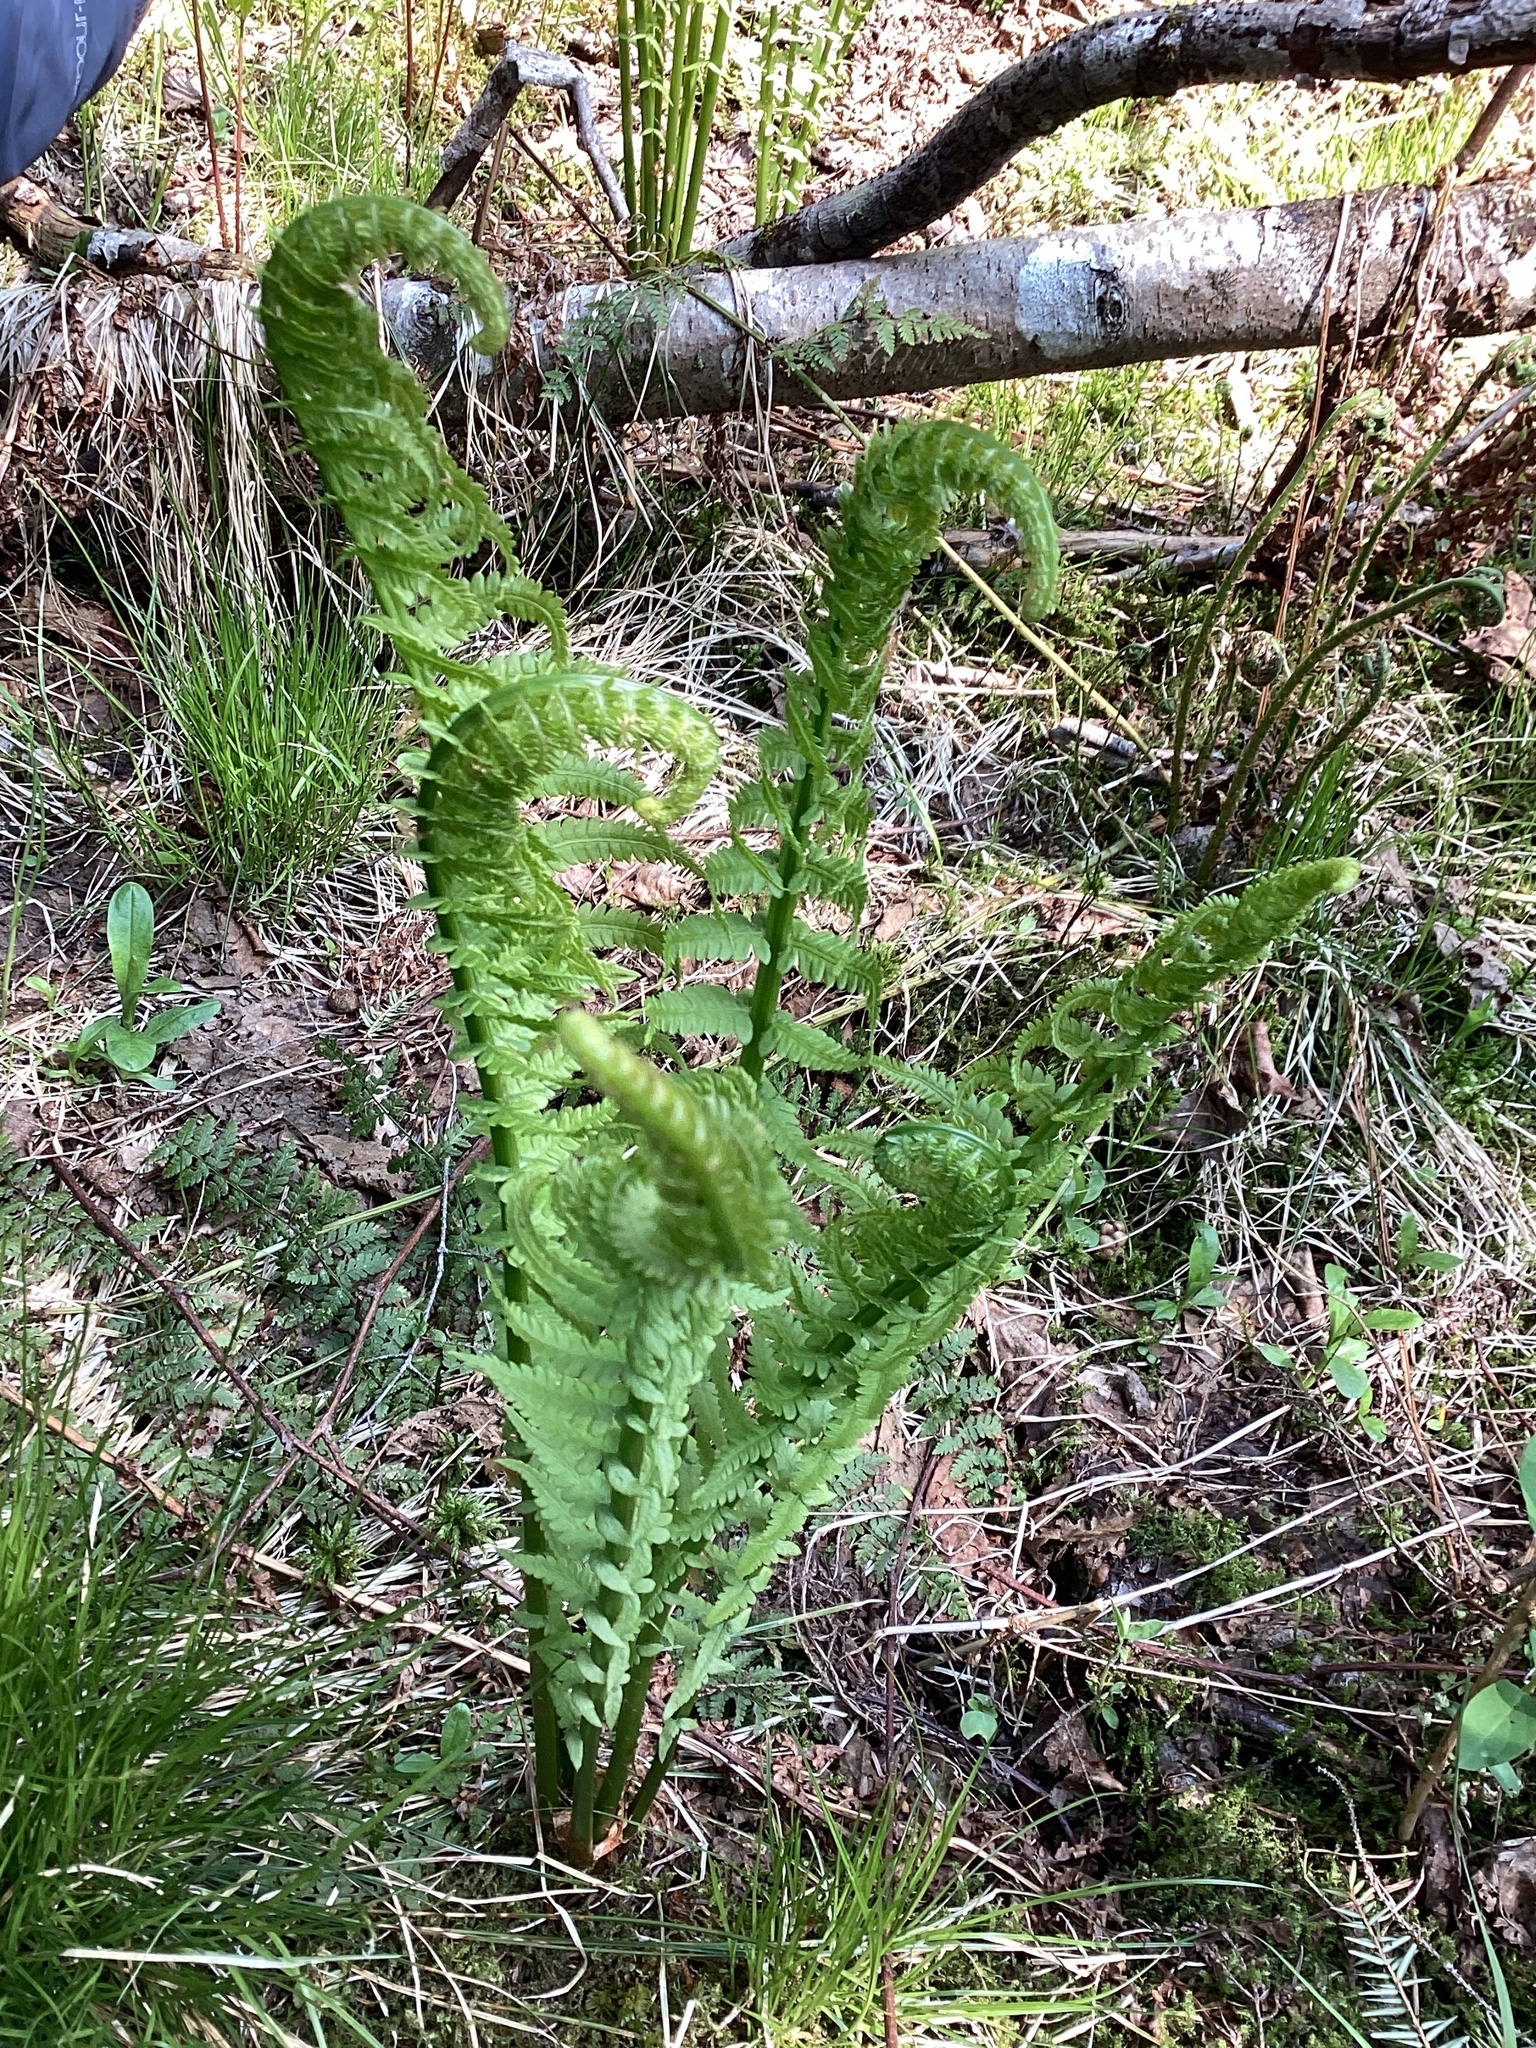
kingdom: Plantae
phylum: Tracheophyta
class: Polypodiopsida
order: Polypodiales
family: Onocleaceae
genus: Matteuccia
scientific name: Matteuccia struthiopteris
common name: Ostrich fern
